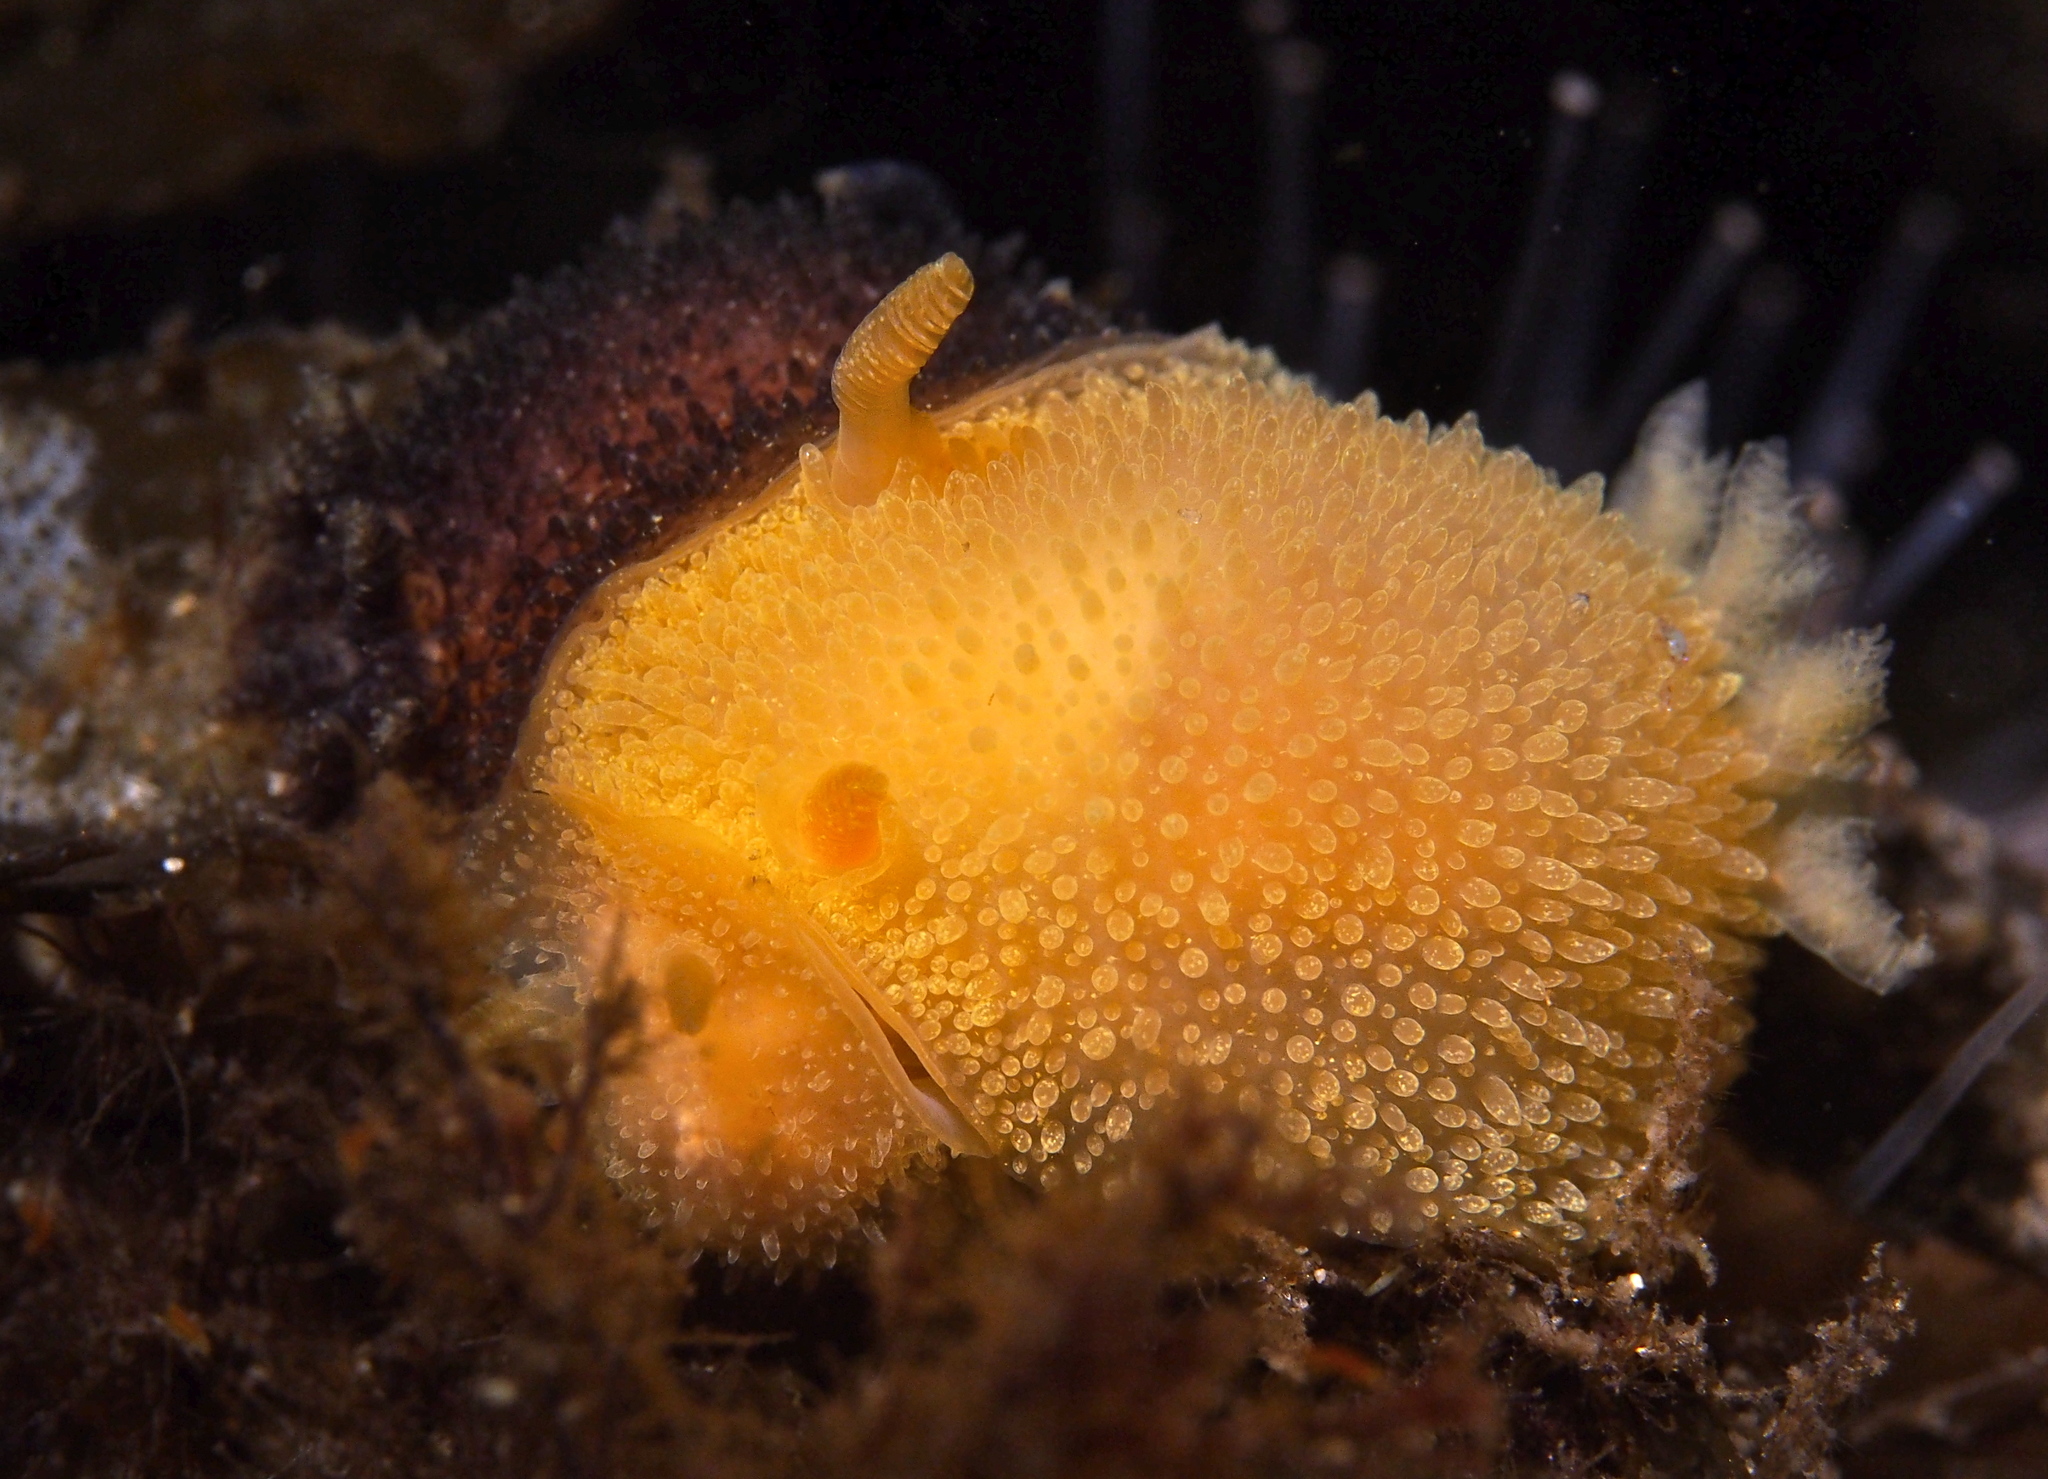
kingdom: Animalia
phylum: Mollusca
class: Gastropoda
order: Nudibranchia
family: Onchidorididae
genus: Acanthodoris
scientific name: Acanthodoris pilosa
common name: Hairy spiny doris
